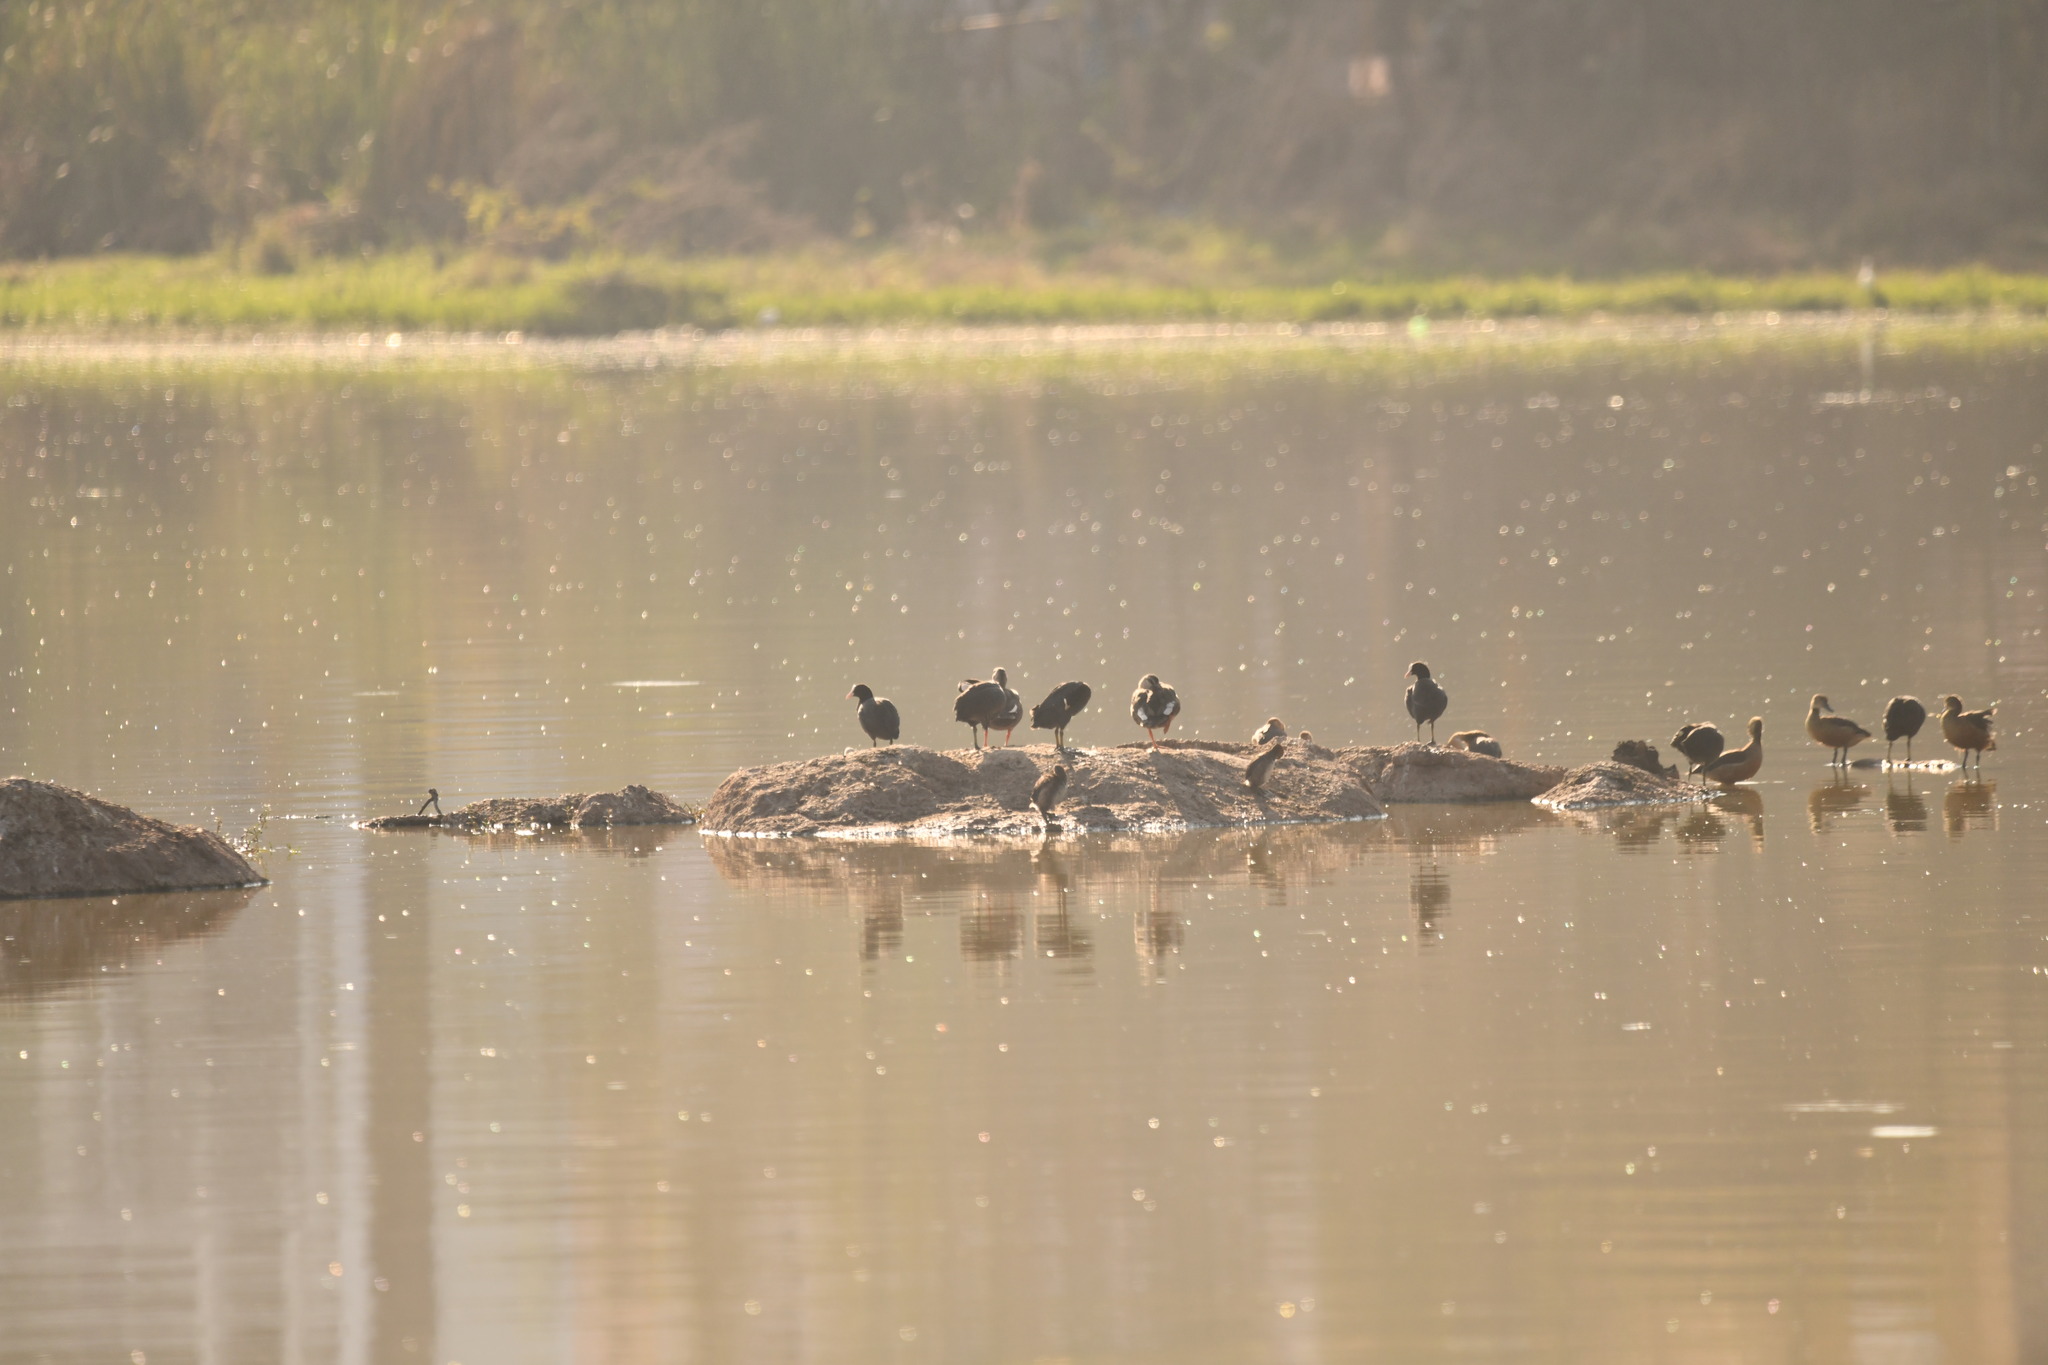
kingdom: Animalia
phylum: Chordata
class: Aves
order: Gruiformes
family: Rallidae
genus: Fulica
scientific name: Fulica atra
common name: Eurasian coot
